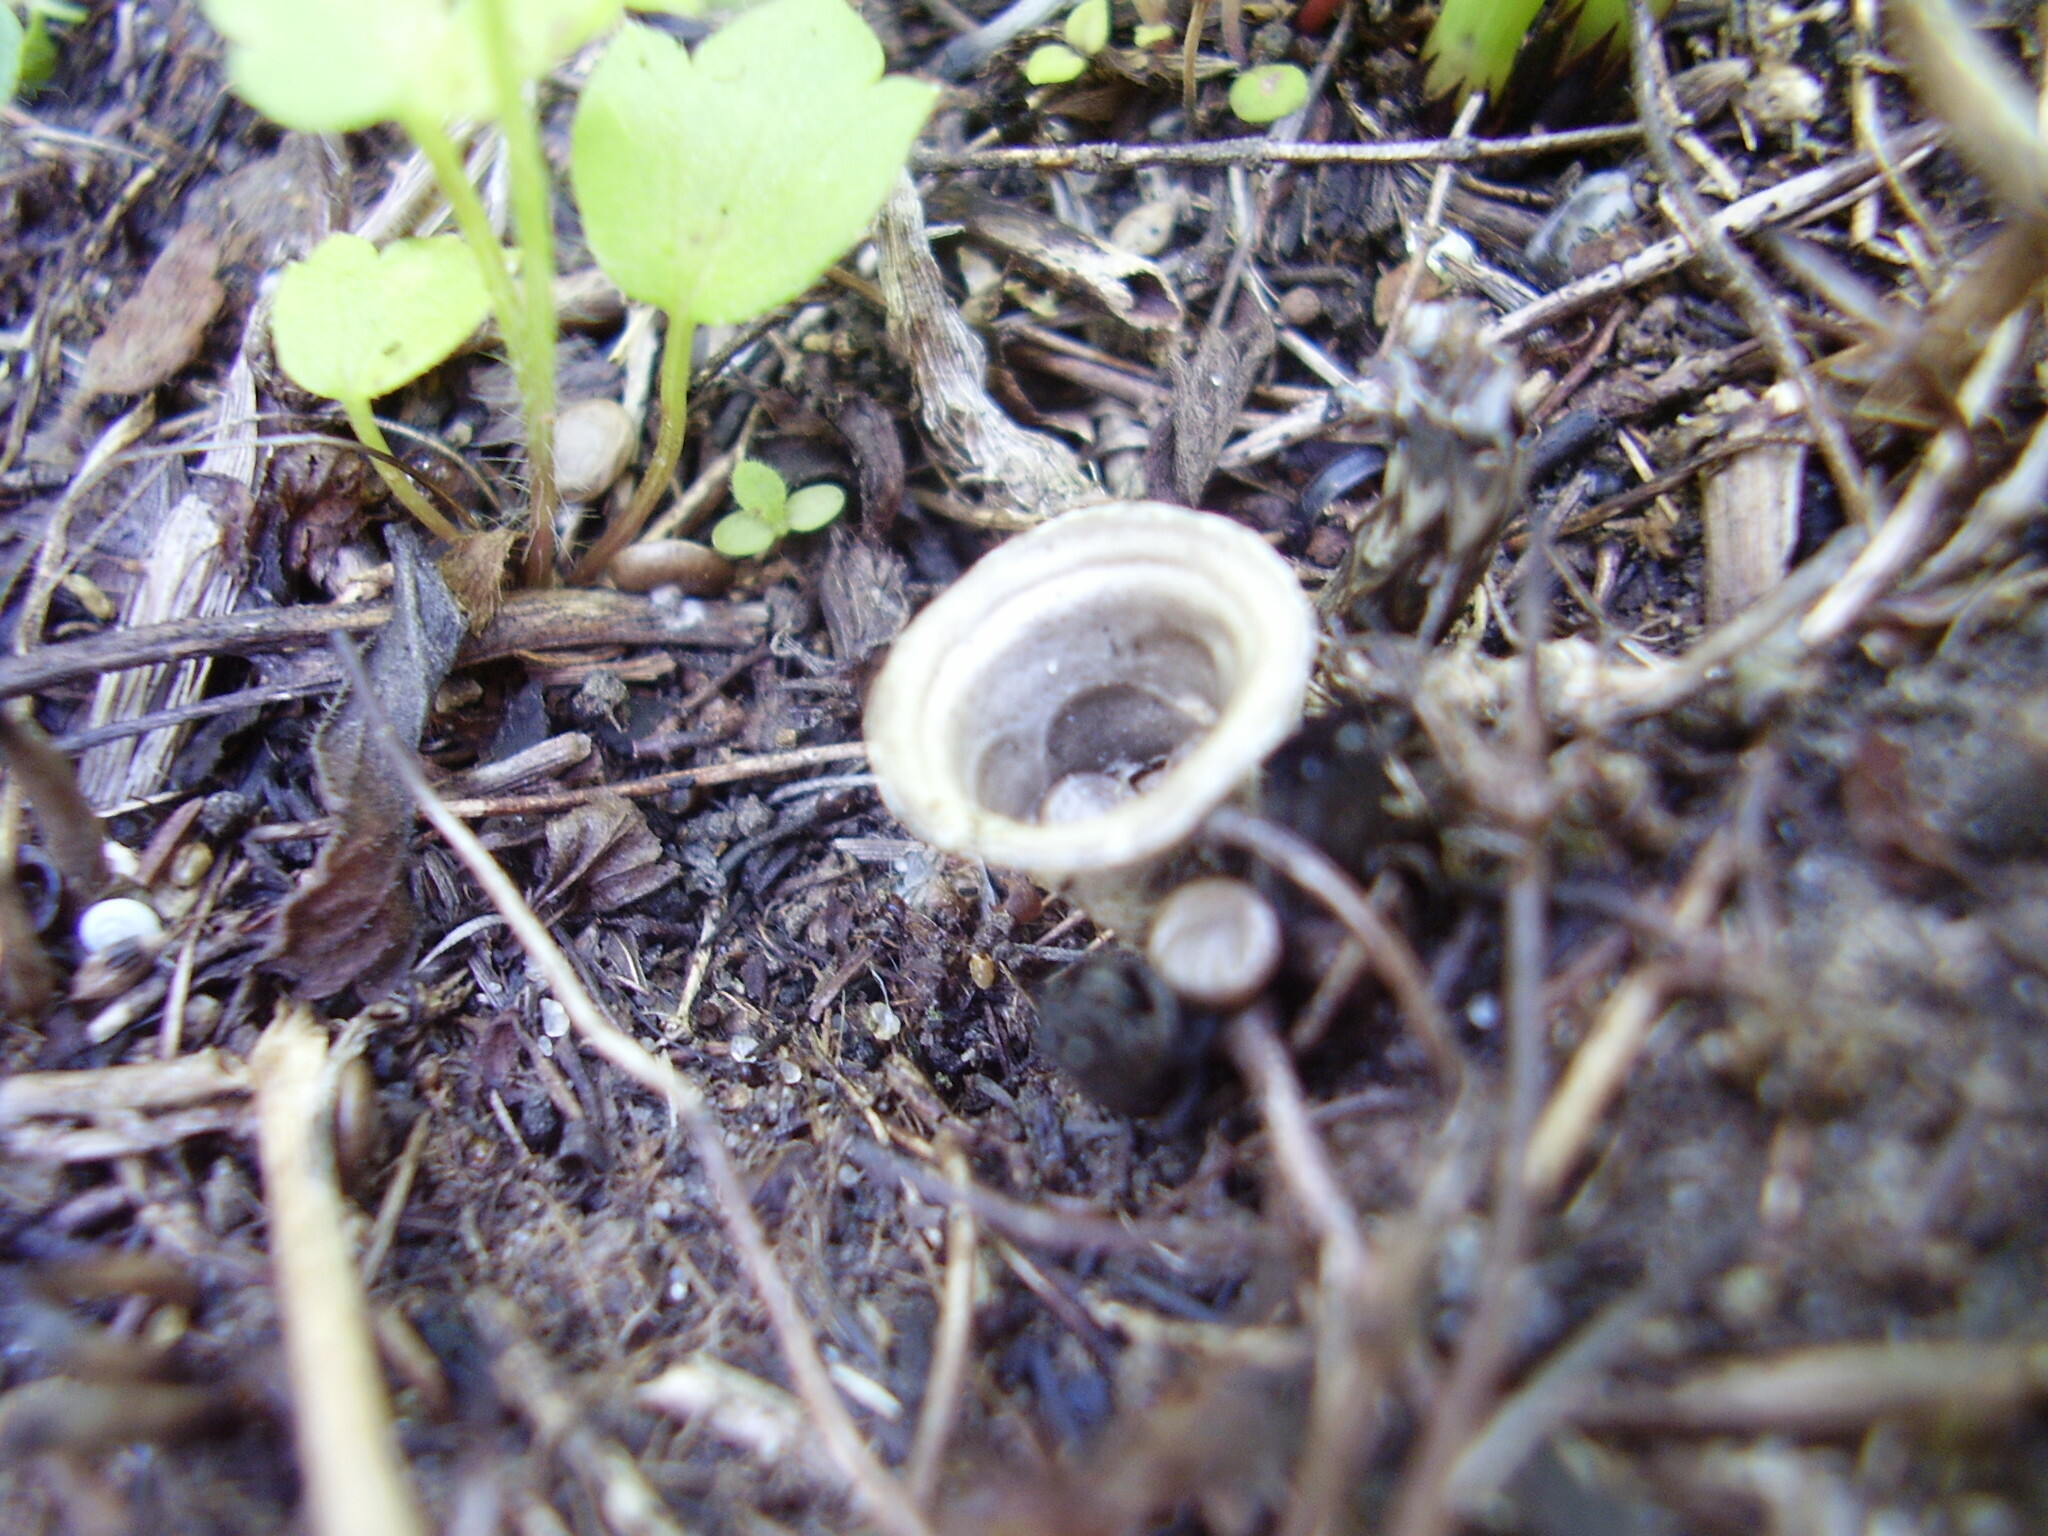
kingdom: Fungi
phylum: Basidiomycota
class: Agaricomycetes
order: Agaricales
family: Agaricaceae
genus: Cyathus
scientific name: Cyathus olla
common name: Field bird's nest
